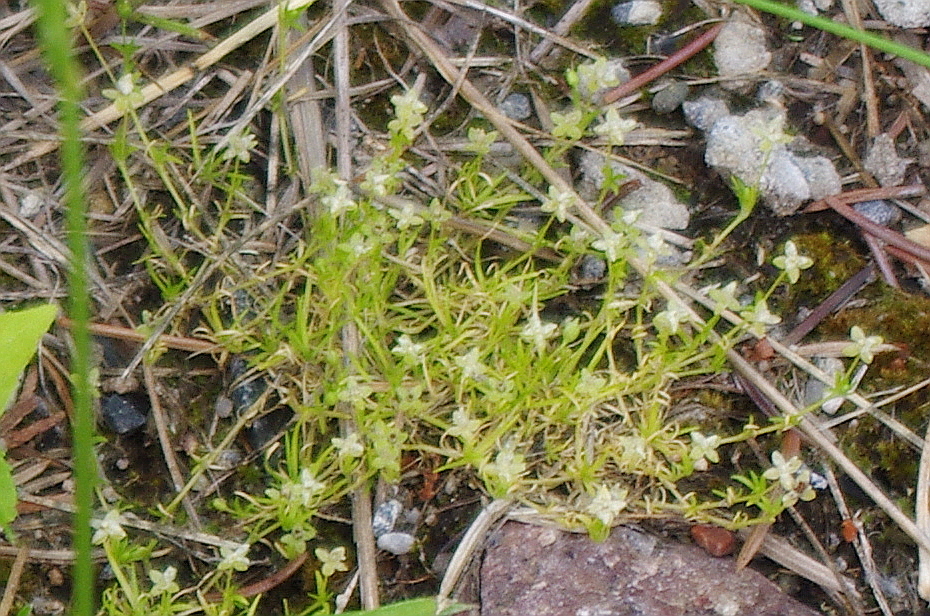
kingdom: Plantae
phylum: Tracheophyta
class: Magnoliopsida
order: Caryophyllales
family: Caryophyllaceae
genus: Sagina
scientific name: Sagina procumbens
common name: Procumbent pearlwort
